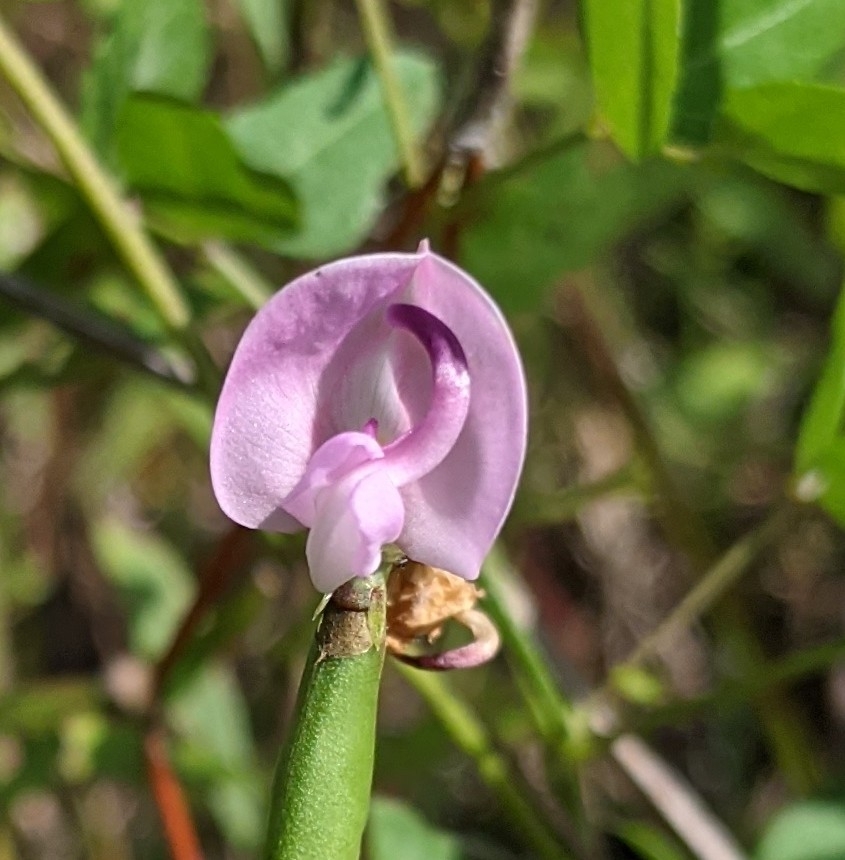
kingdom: Plantae
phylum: Tracheophyta
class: Magnoliopsida
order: Fabales
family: Fabaceae
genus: Strophostyles
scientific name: Strophostyles helvola
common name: Trailing wild bean
